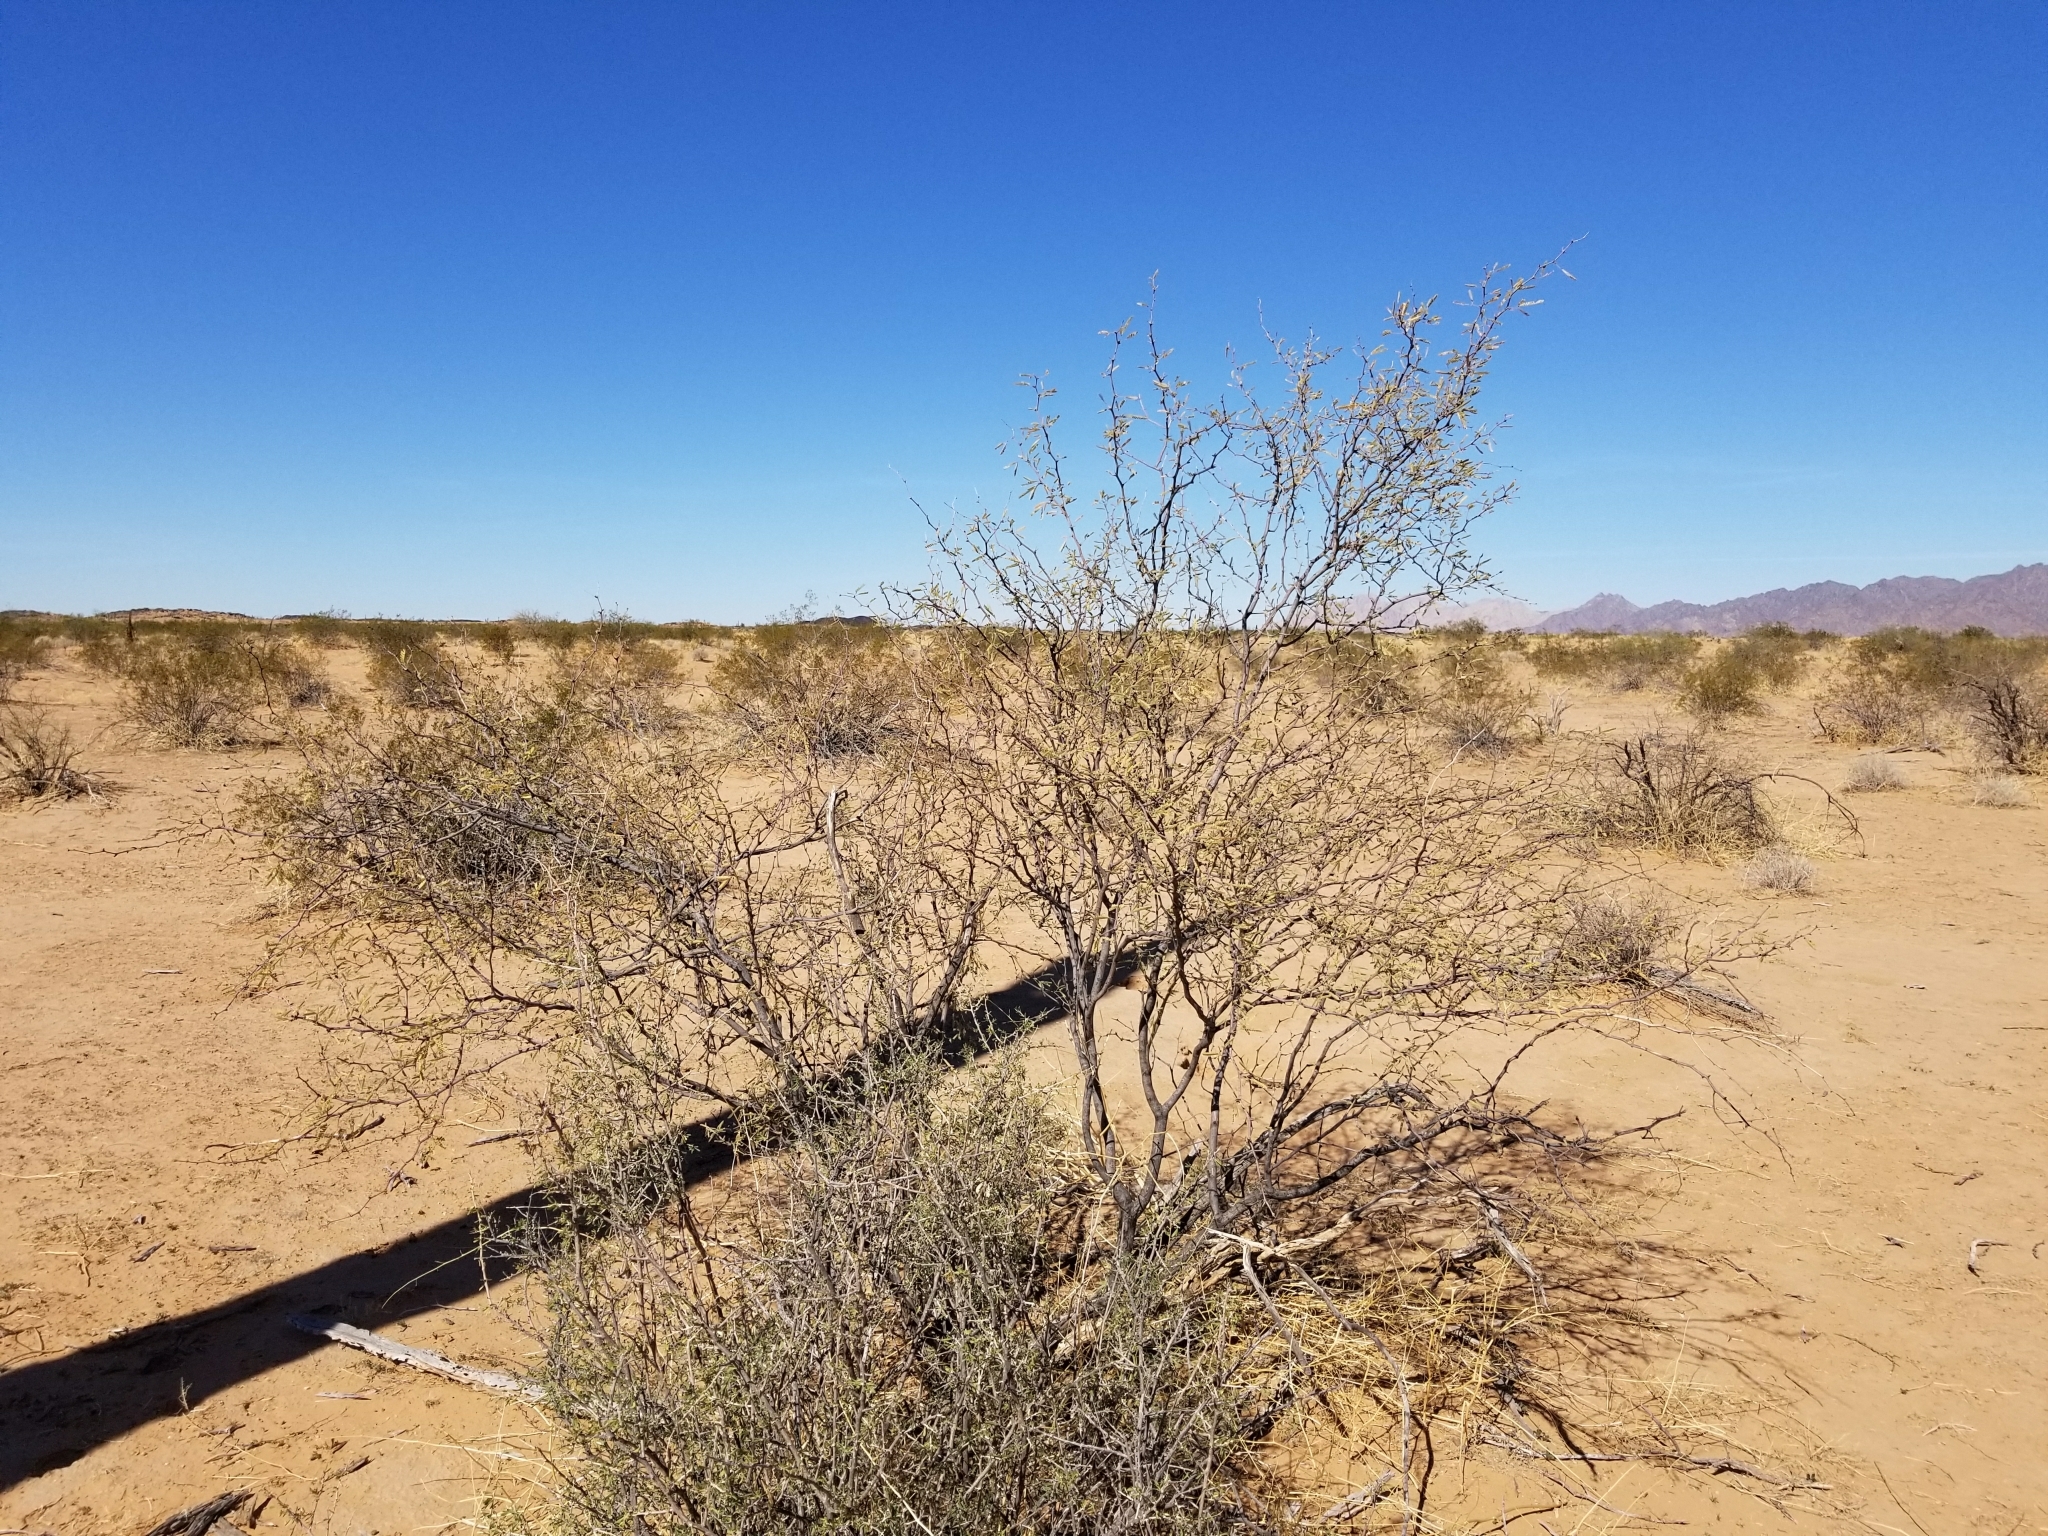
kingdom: Plantae
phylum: Tracheophyta
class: Magnoliopsida
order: Fabales
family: Fabaceae
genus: Prosopis
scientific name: Prosopis glandulosa
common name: Honey mesquite
